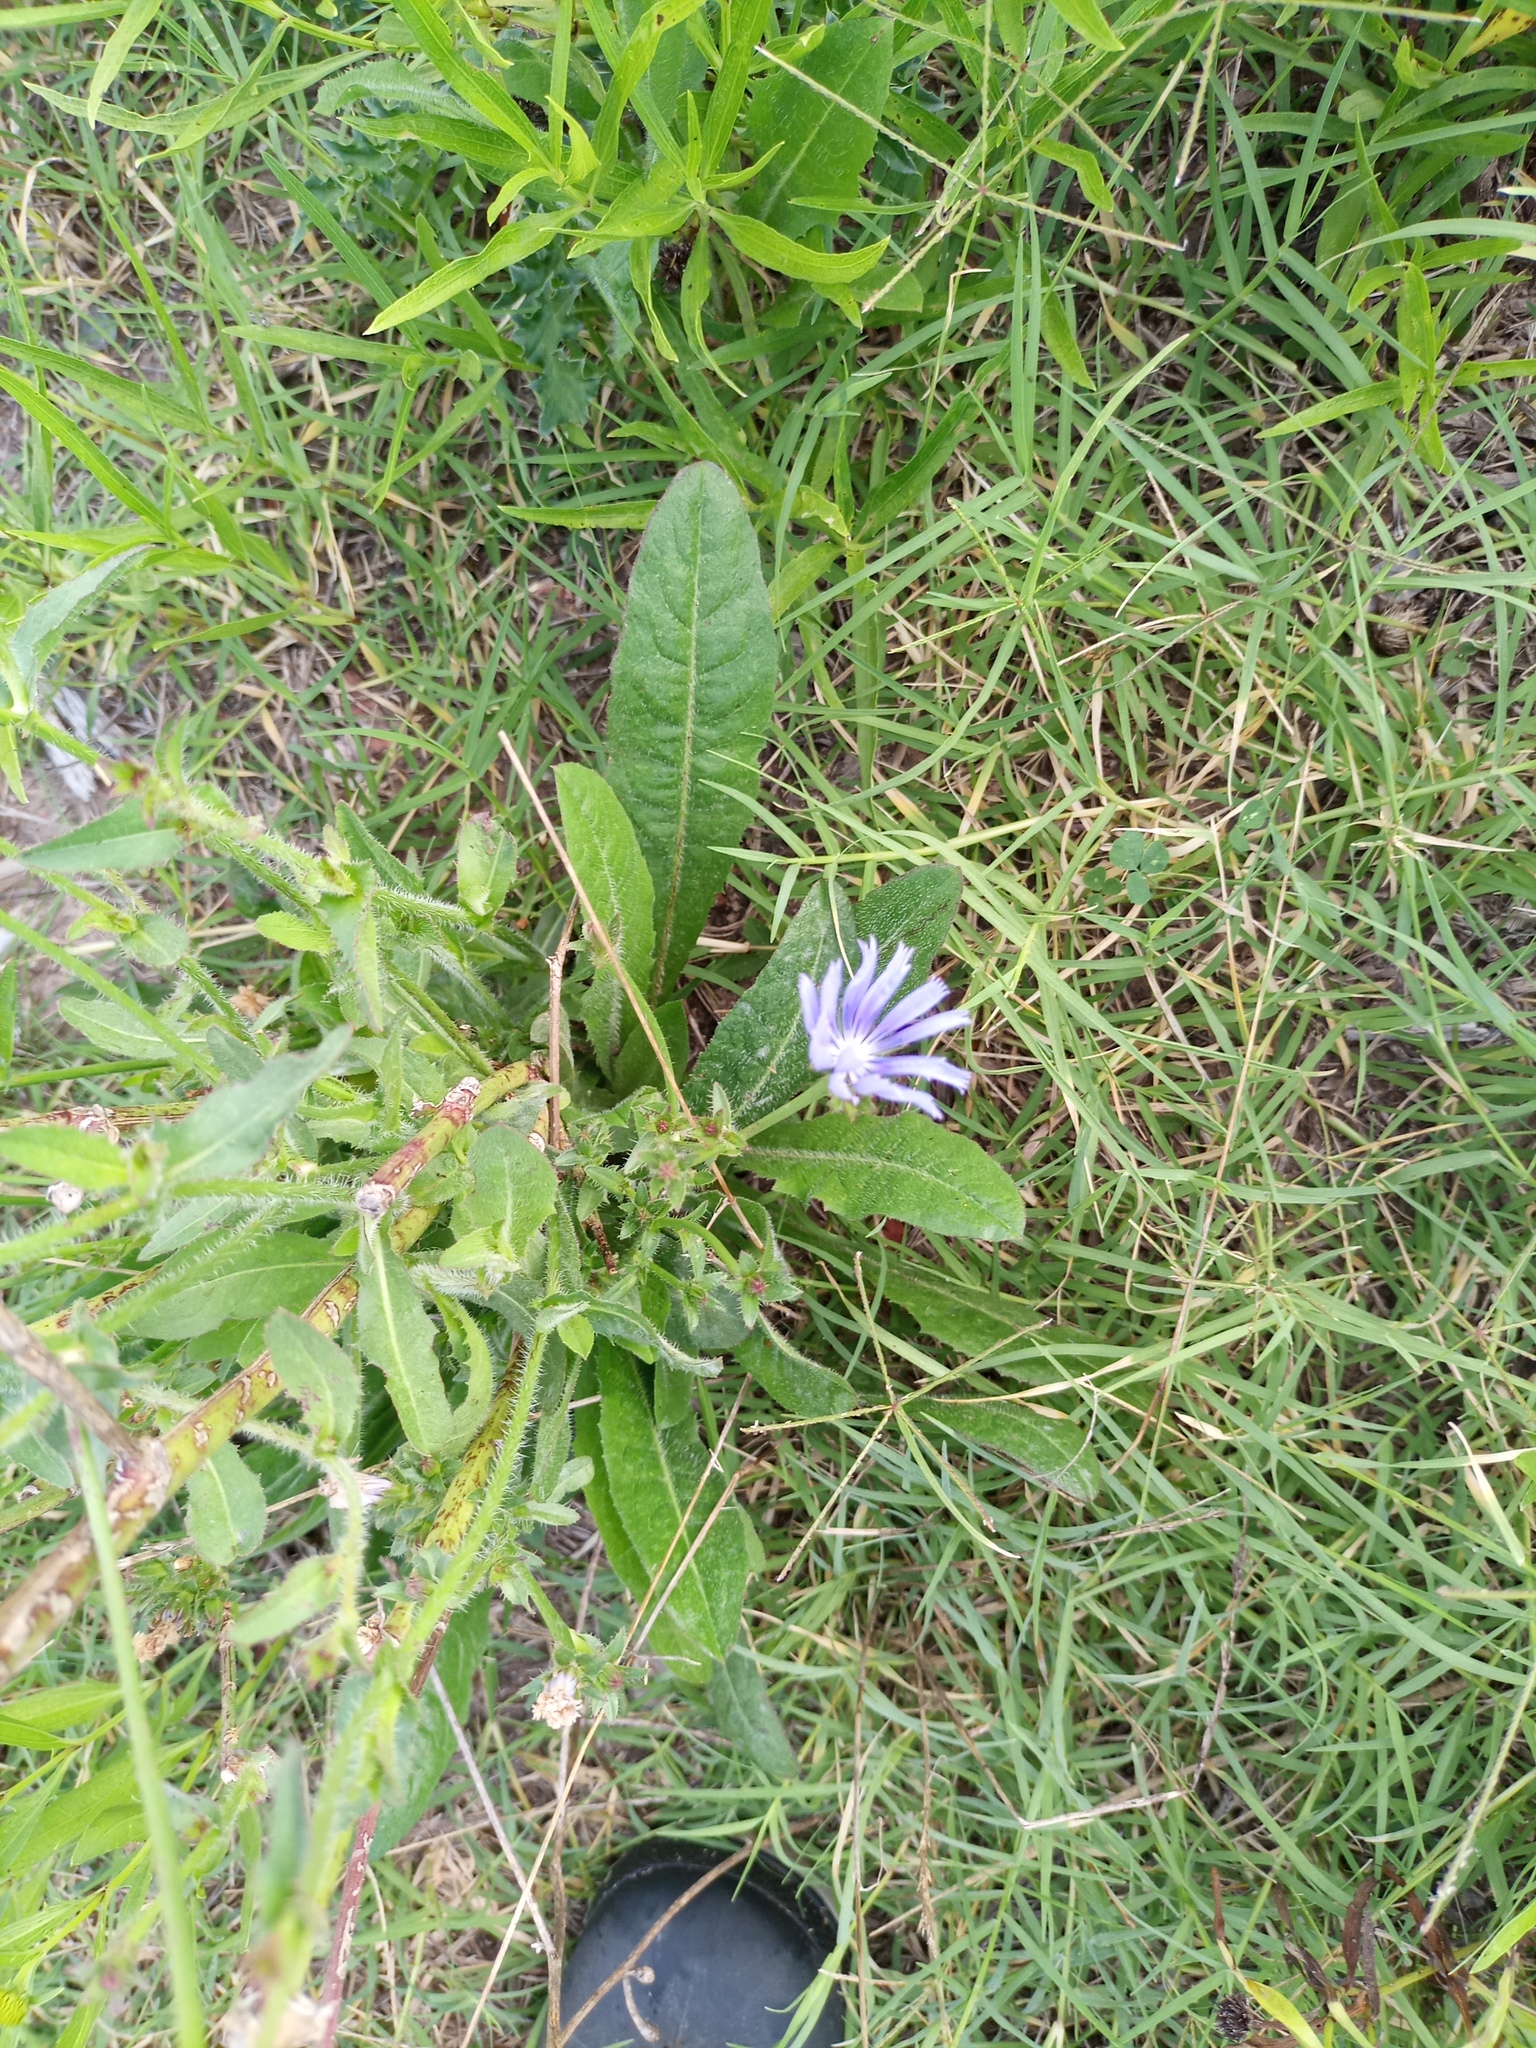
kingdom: Plantae
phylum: Tracheophyta
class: Magnoliopsida
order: Asterales
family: Asteraceae
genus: Cichorium
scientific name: Cichorium intybus
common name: Chicory
